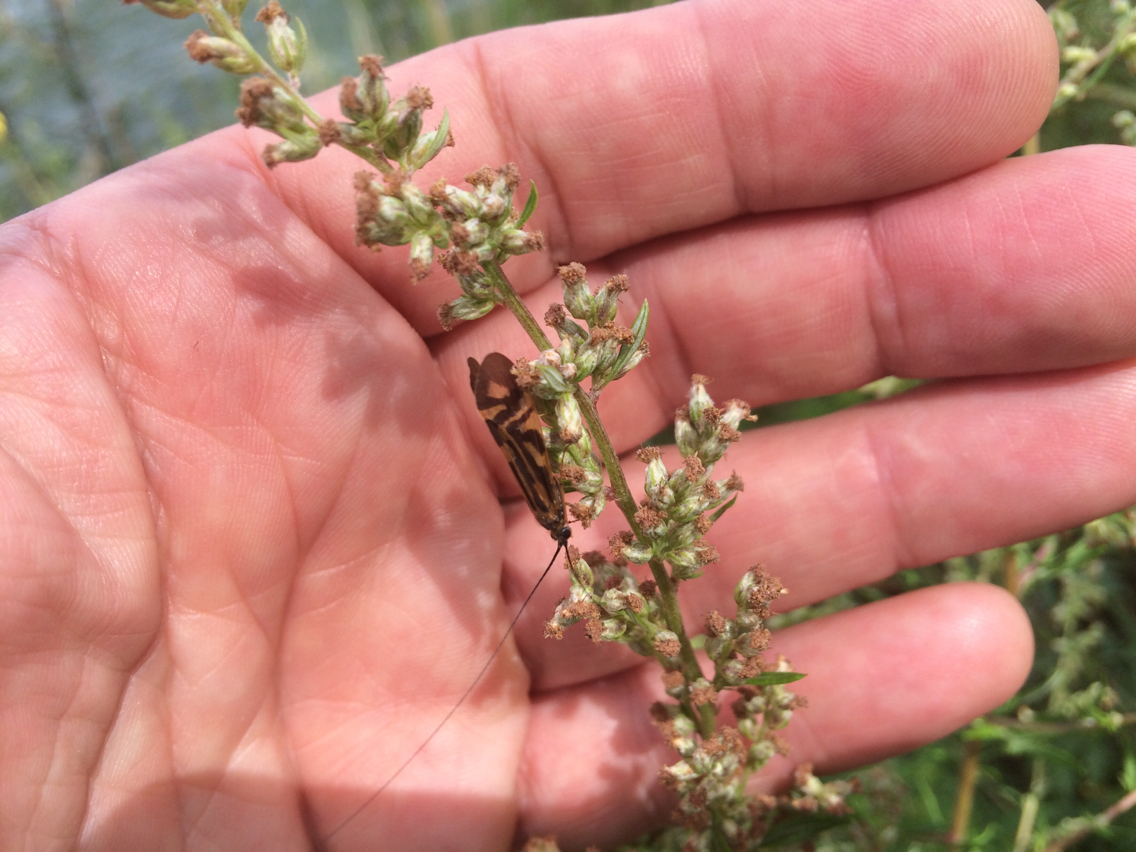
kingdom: Animalia
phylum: Arthropoda
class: Insecta
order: Trichoptera
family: Hydropsychidae
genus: Macrostemum
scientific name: Macrostemum zebratum
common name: Zebra caddisfly
